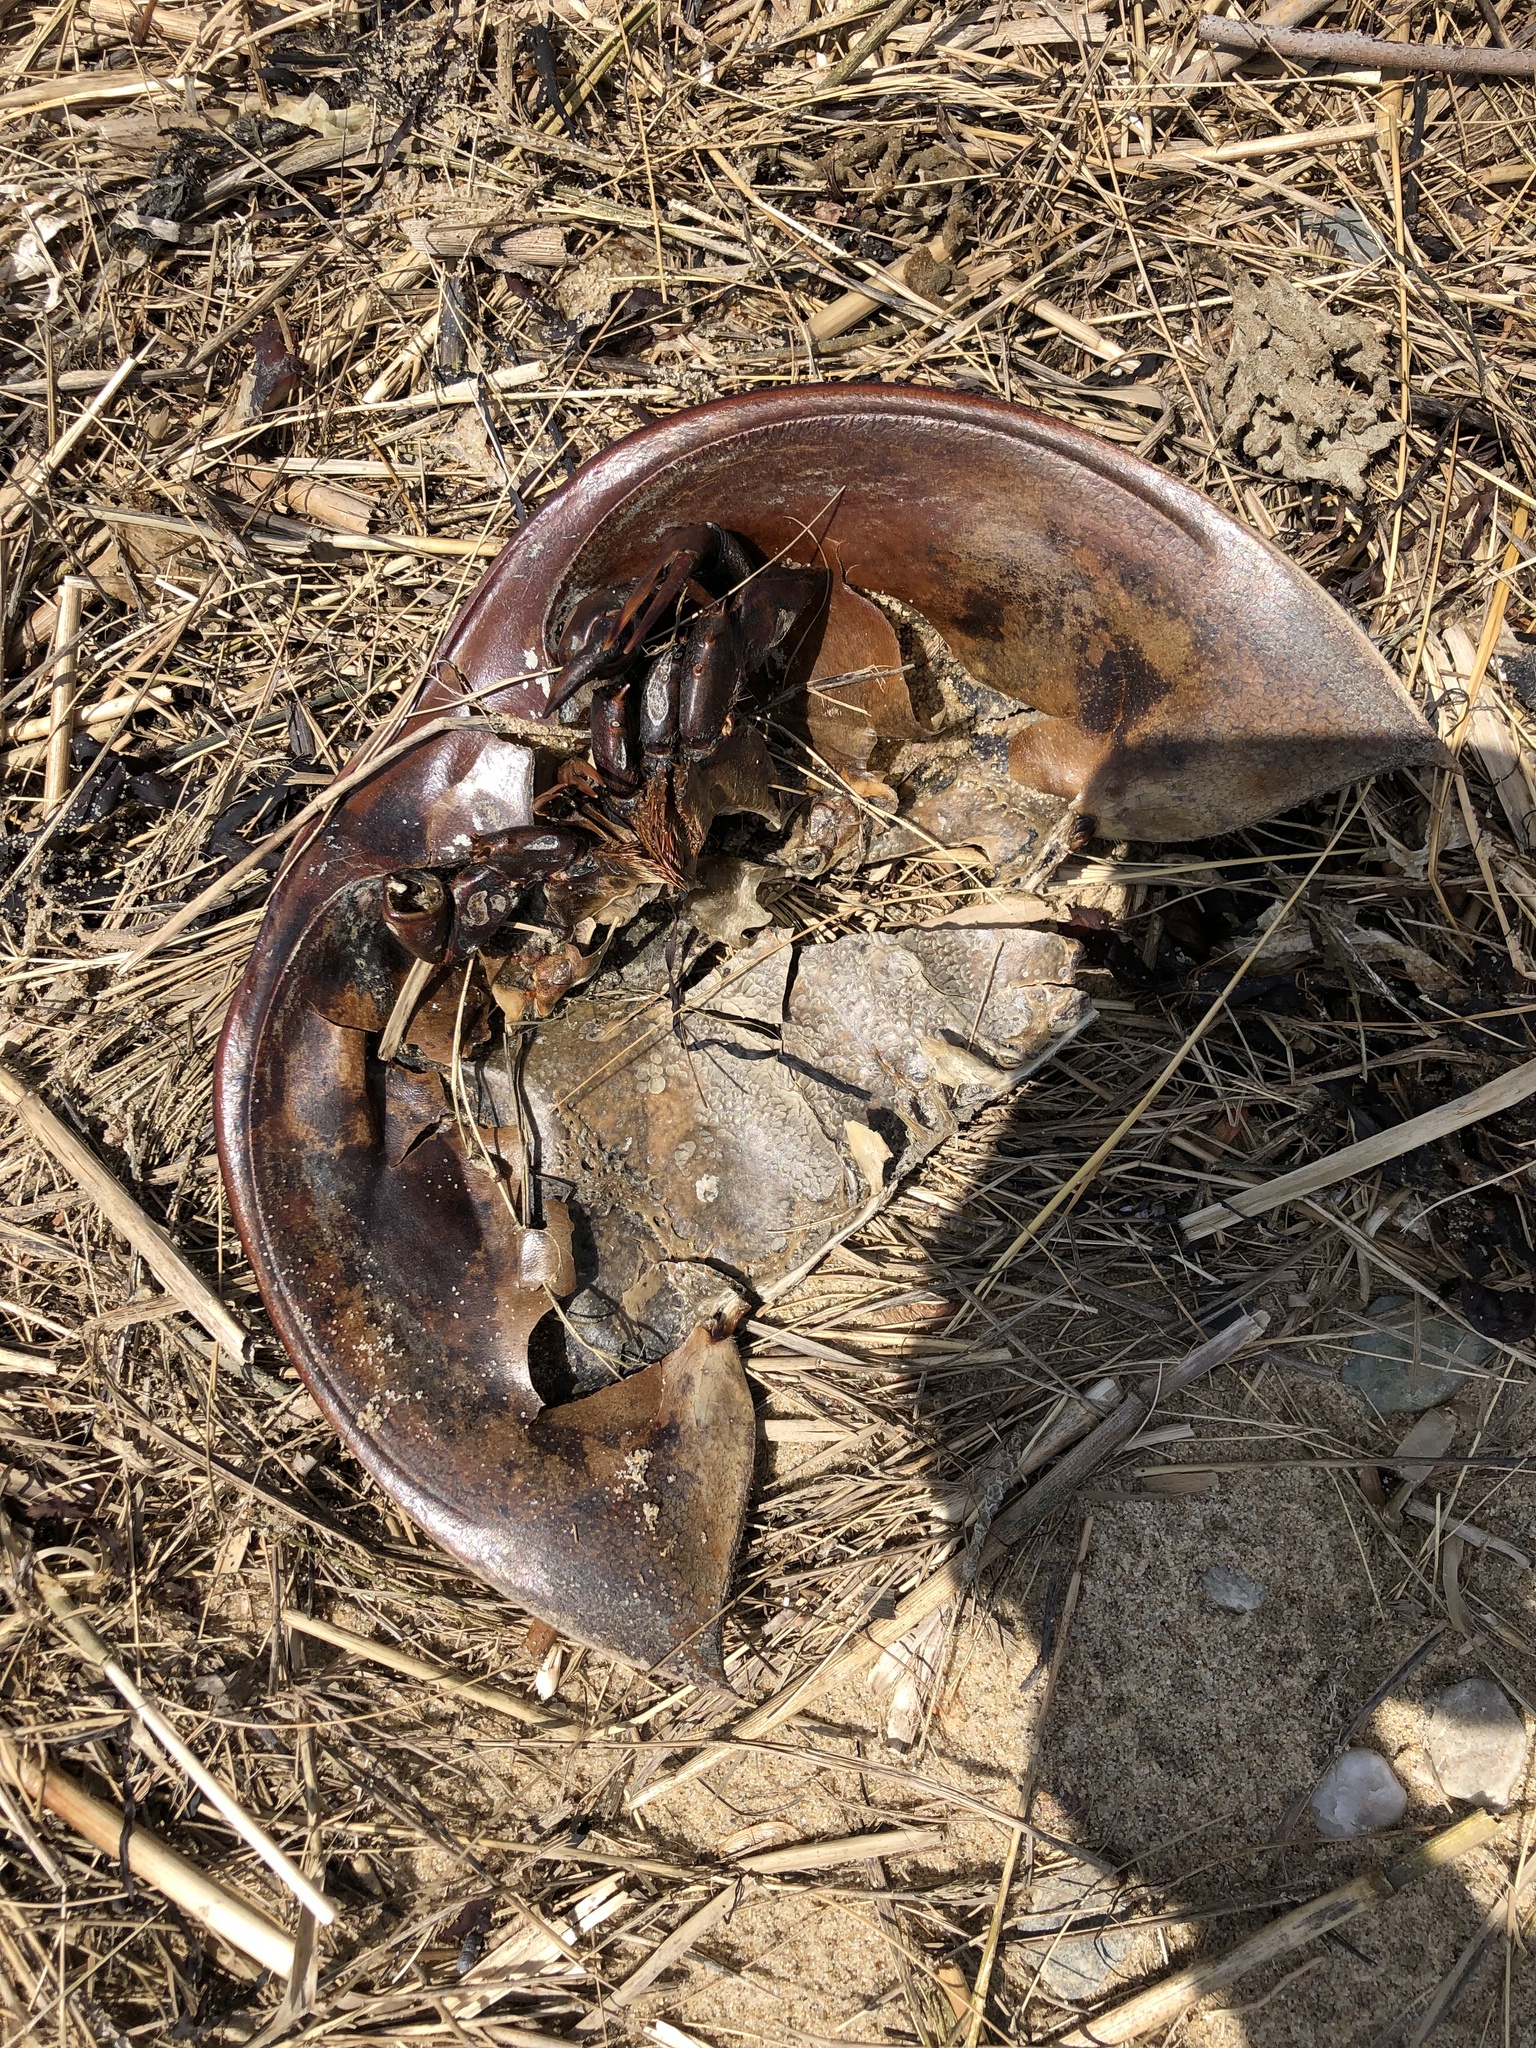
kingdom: Animalia
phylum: Arthropoda
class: Merostomata
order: Xiphosurida
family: Limulidae
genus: Limulus
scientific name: Limulus polyphemus
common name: Horseshoe crab
